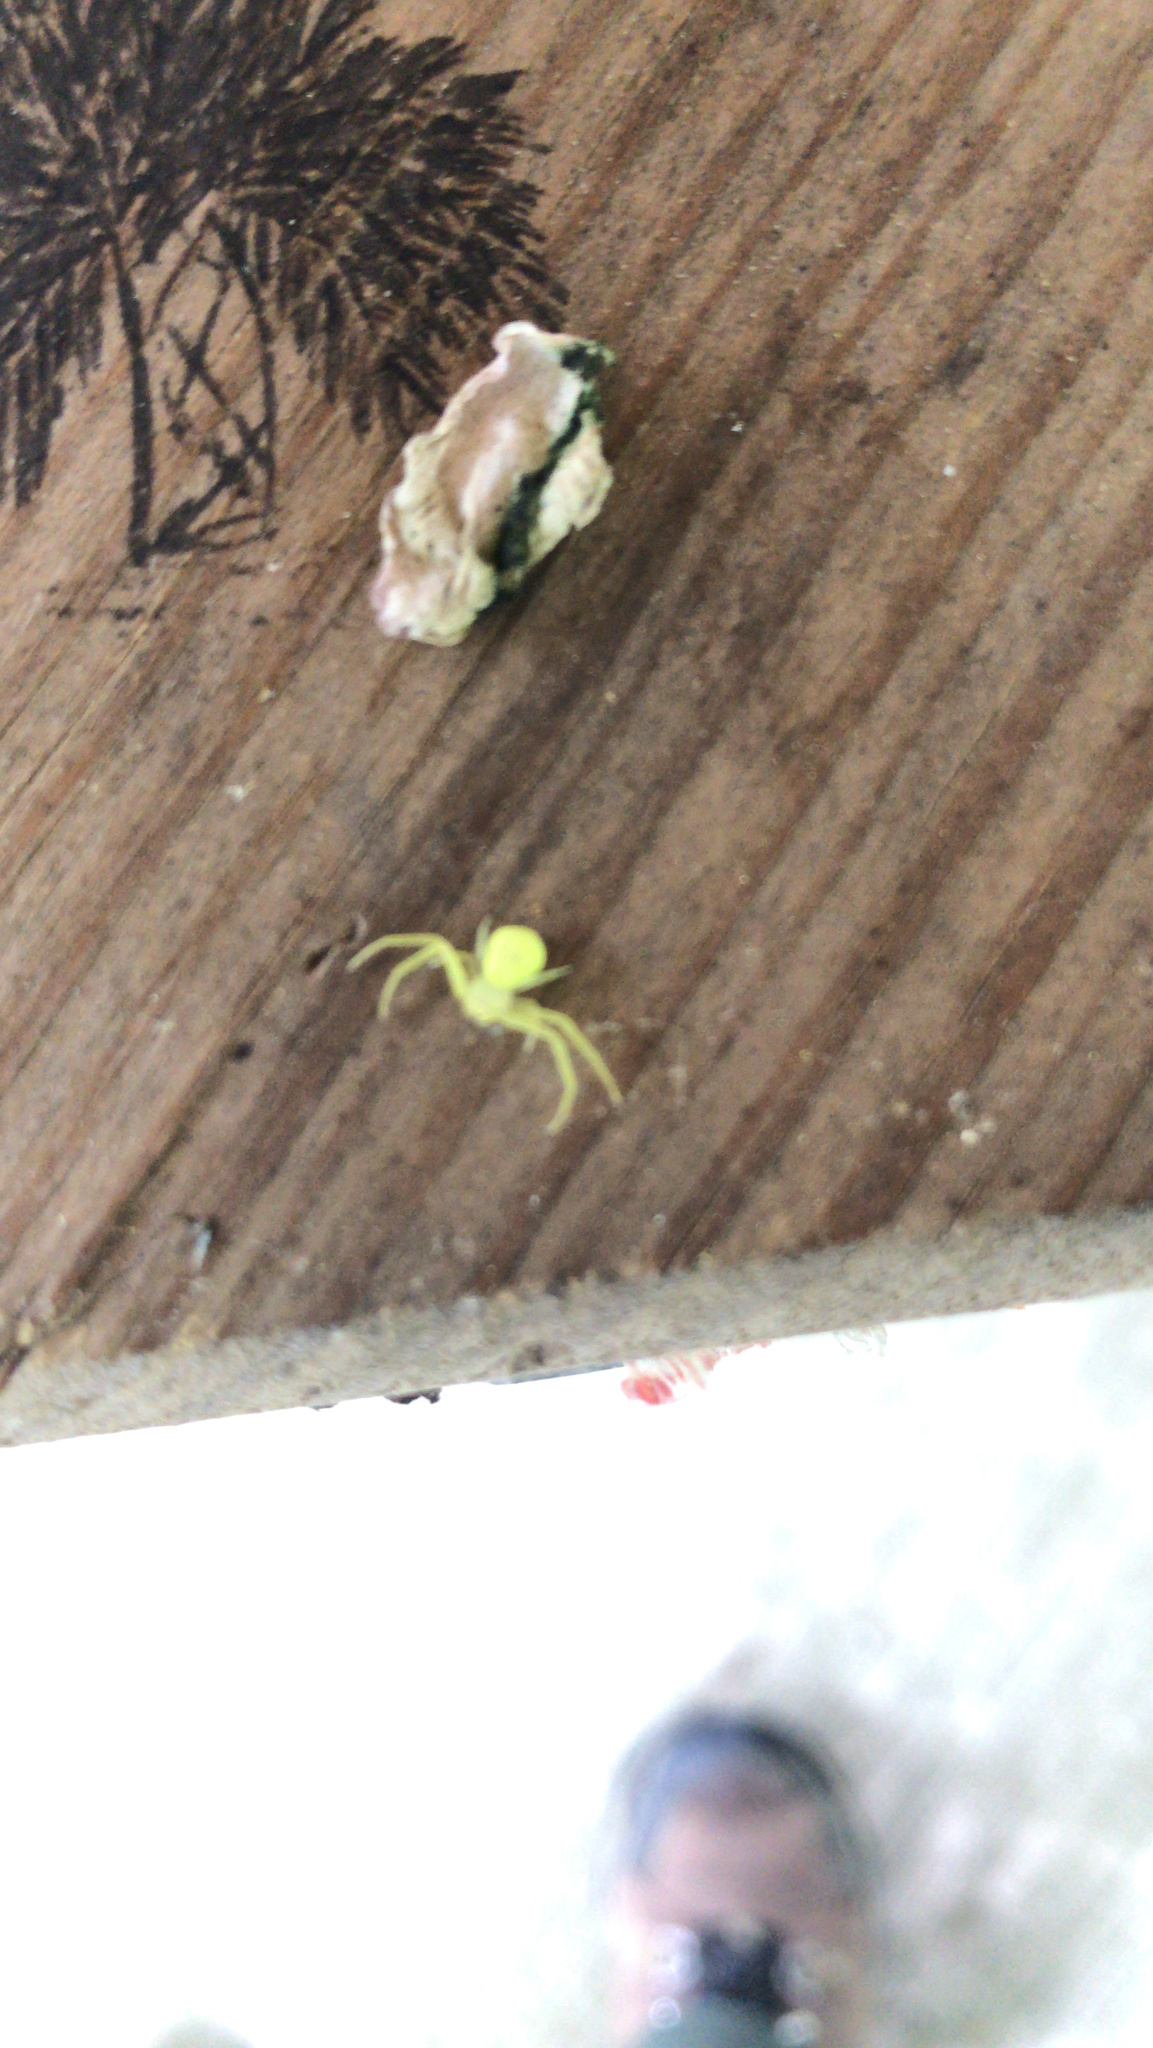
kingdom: Animalia
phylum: Arthropoda
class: Arachnida
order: Araneae
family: Thomisidae
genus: Misumessus
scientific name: Misumessus oblongus
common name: American green crab spider
